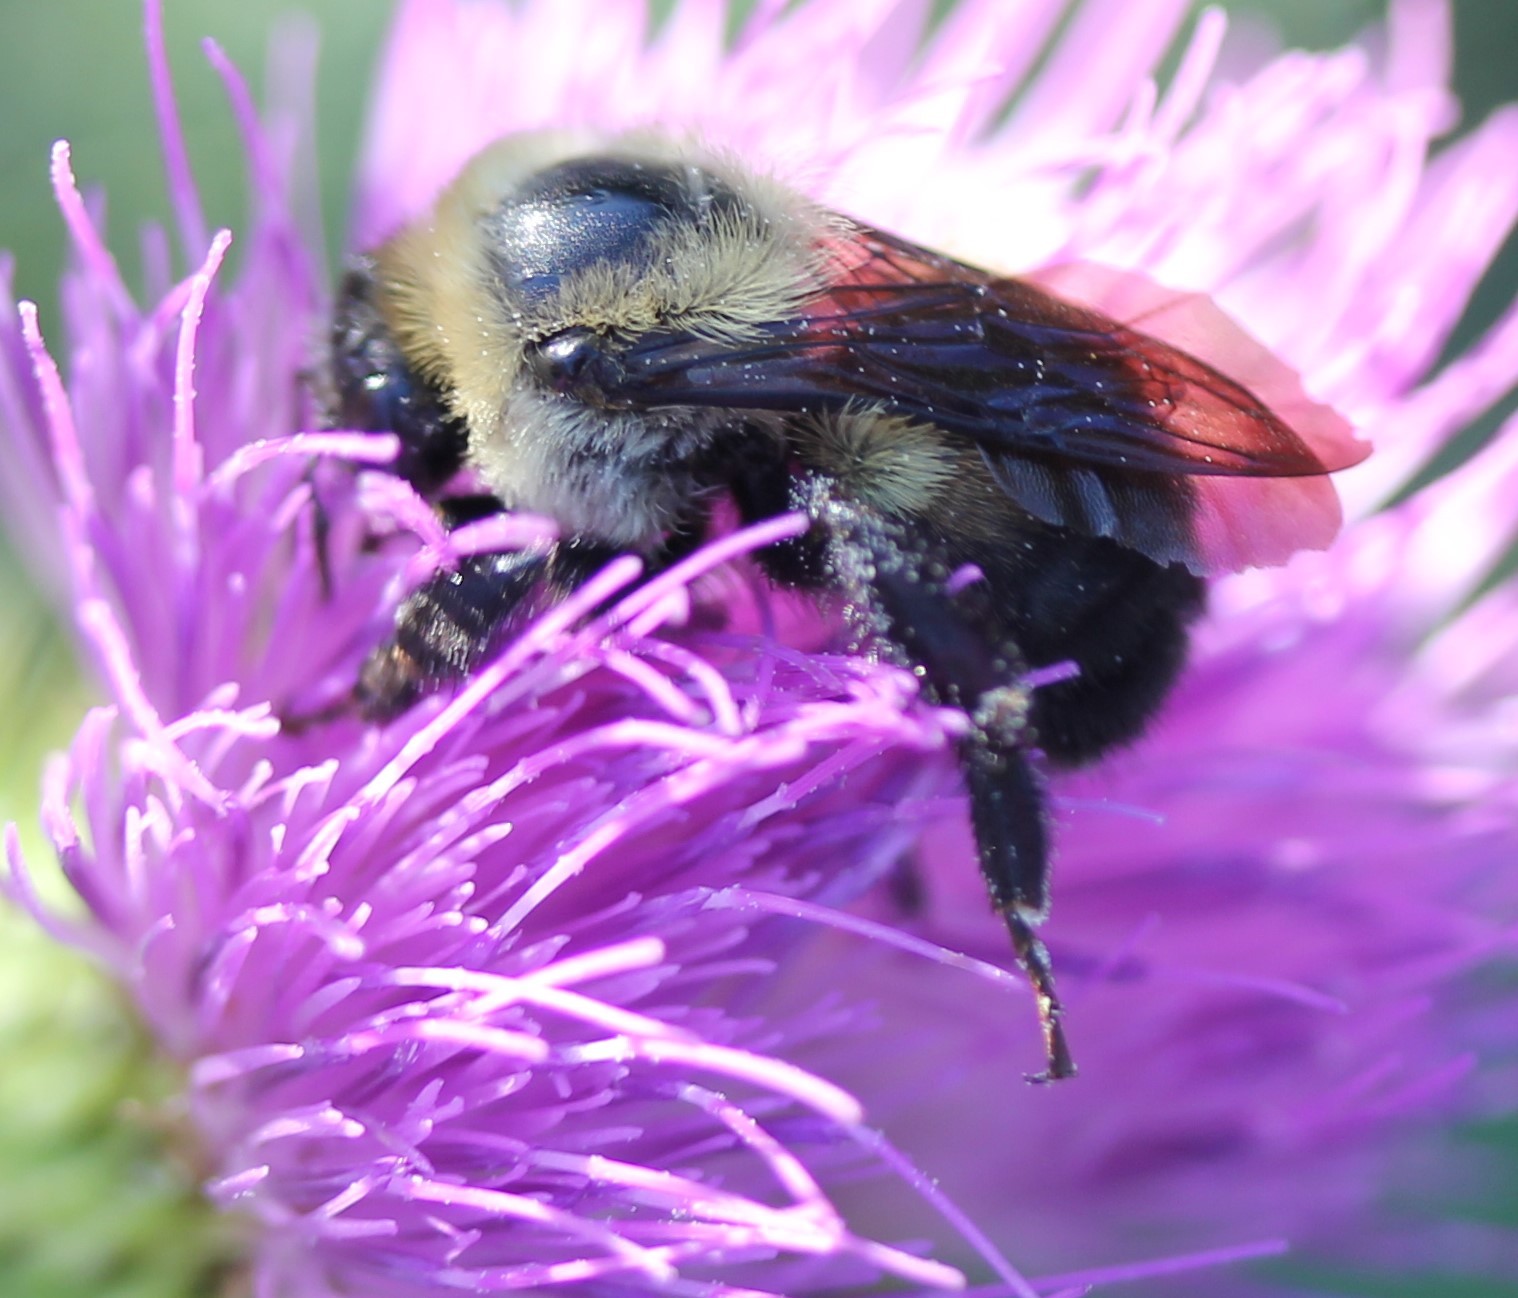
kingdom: Animalia
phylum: Arthropoda
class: Insecta
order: Hymenoptera
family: Apidae
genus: Bombus
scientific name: Bombus griseocollis
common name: Brown-belted bumble bee
